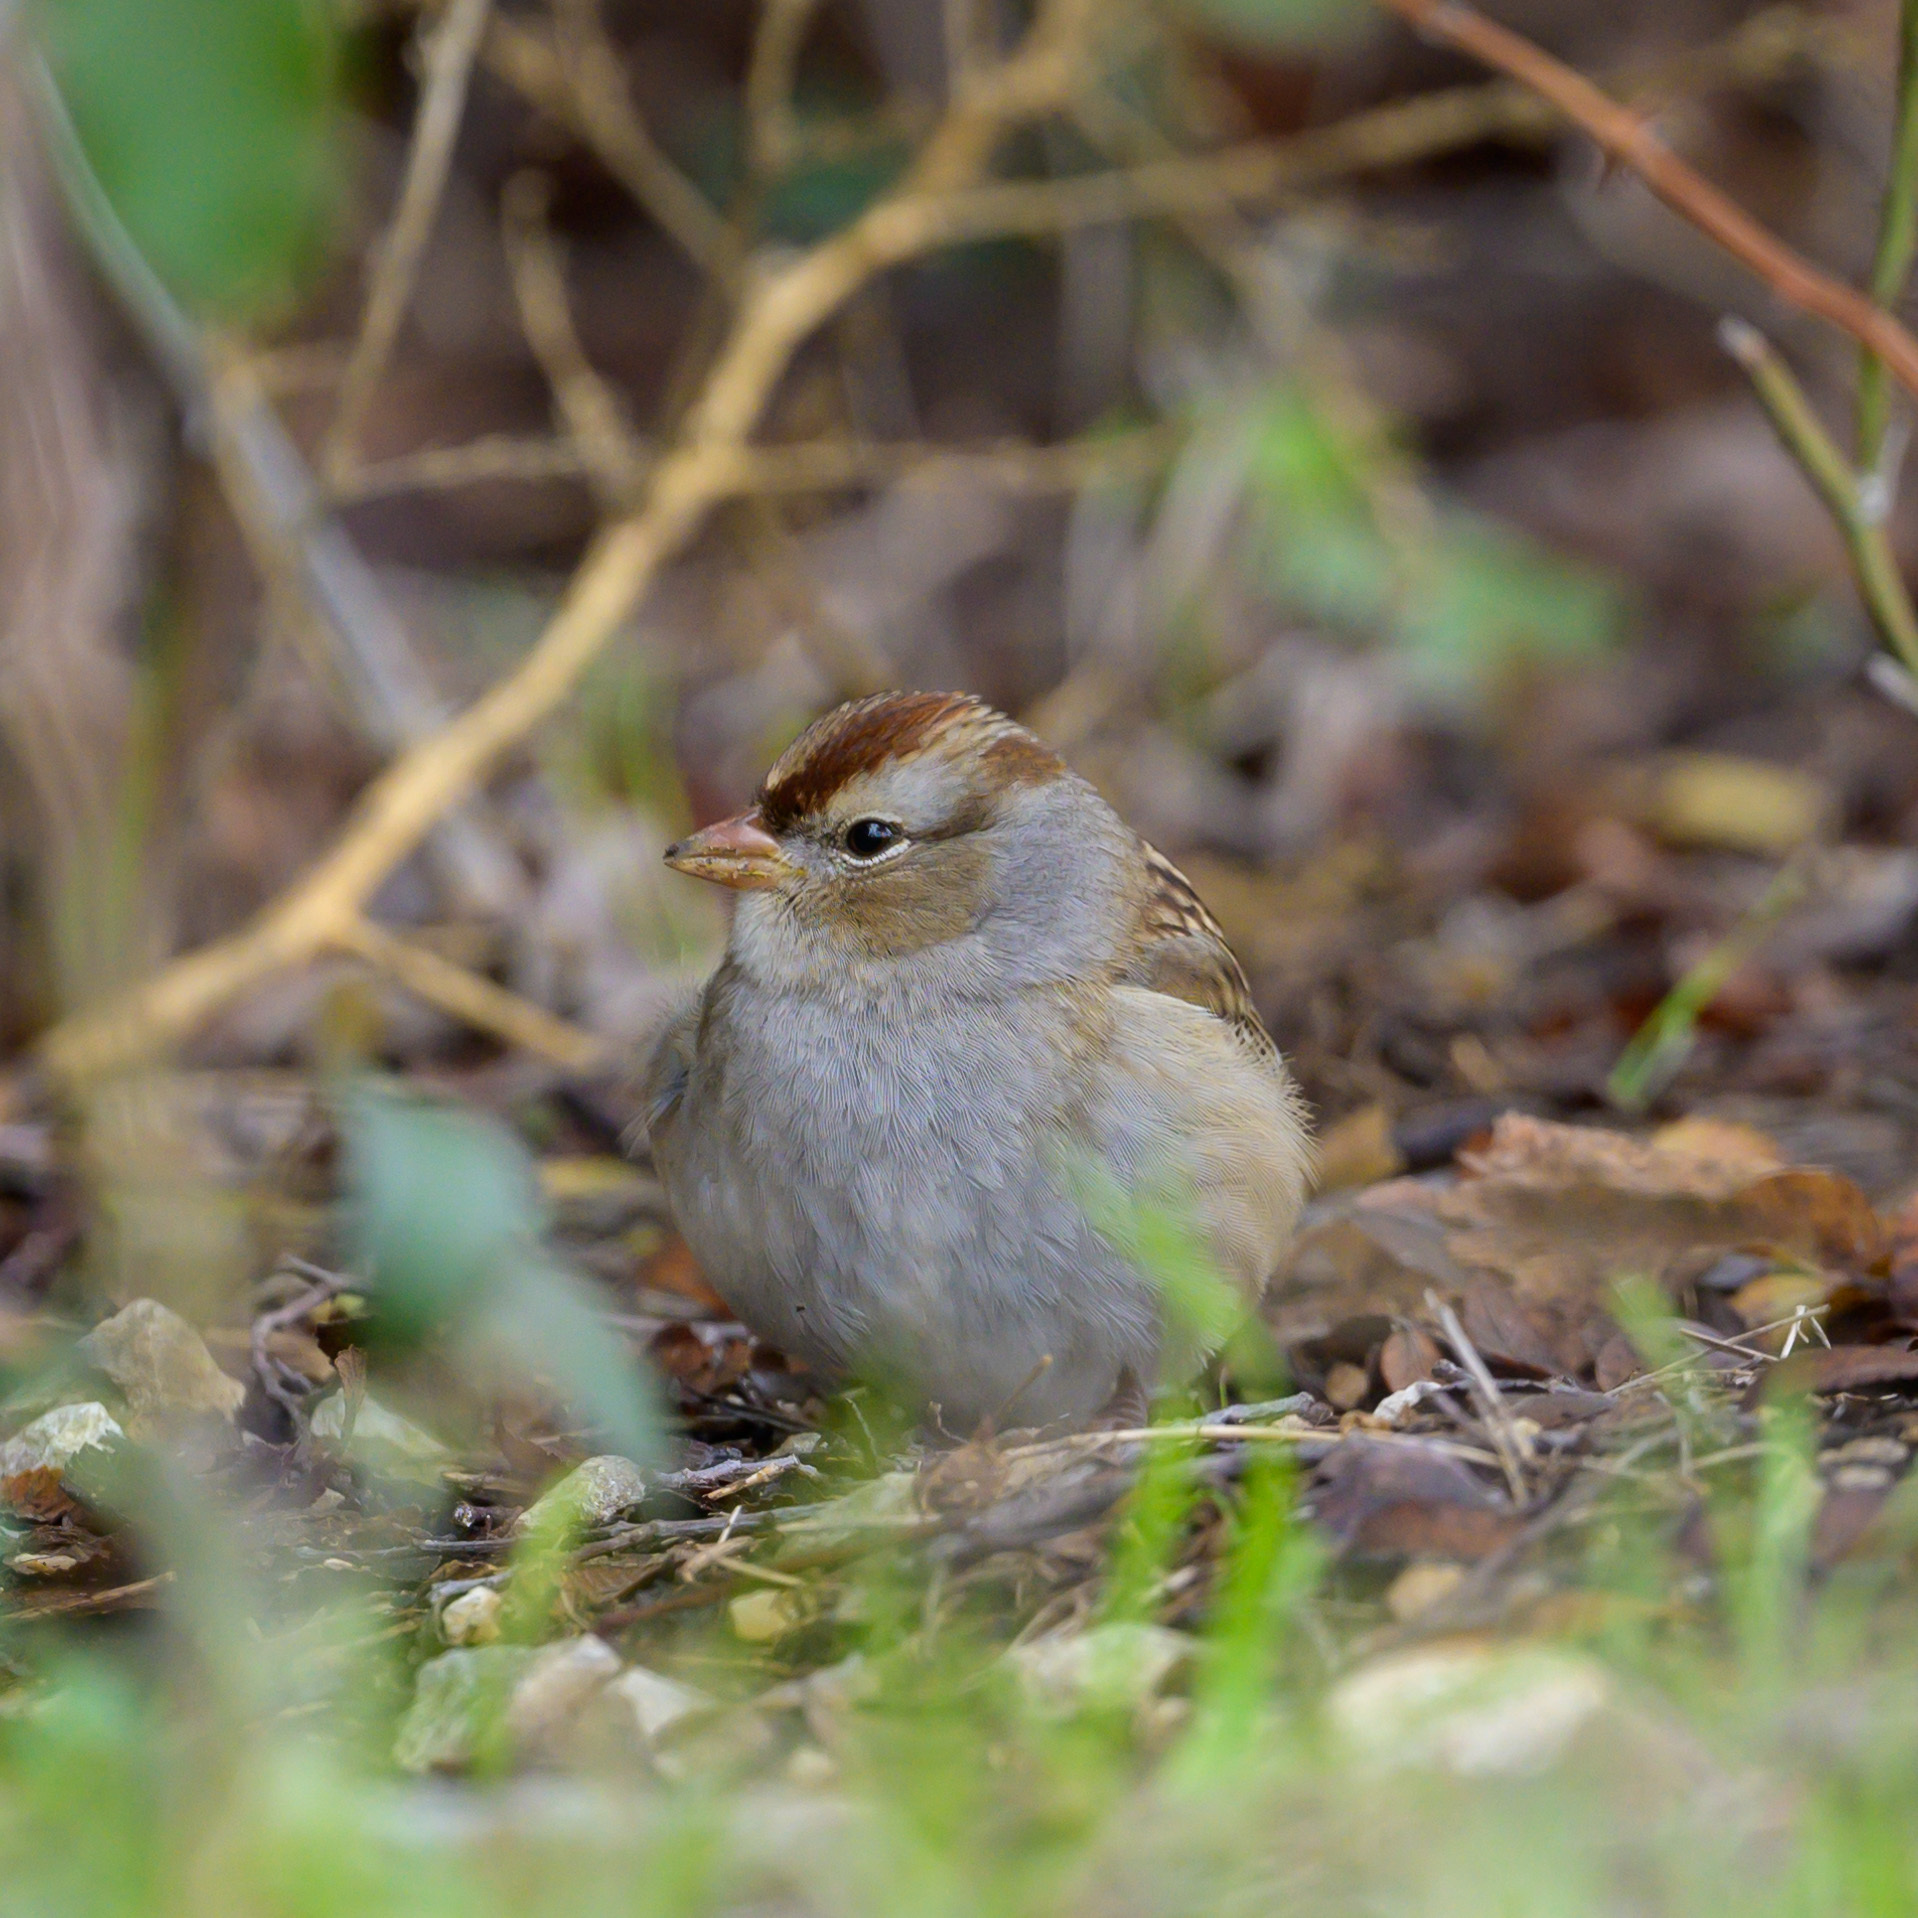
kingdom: Animalia
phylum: Chordata
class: Aves
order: Passeriformes
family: Passerellidae
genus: Zonotrichia
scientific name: Zonotrichia leucophrys
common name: White-crowned sparrow
